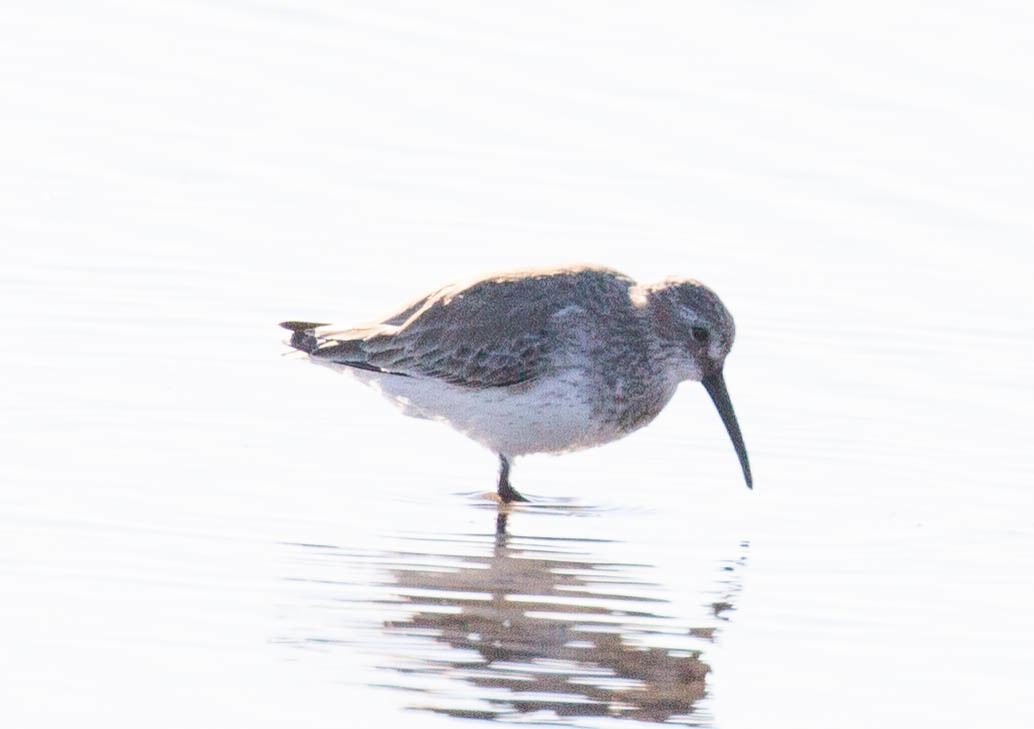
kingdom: Animalia
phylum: Chordata
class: Aves
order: Charadriiformes
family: Scolopacidae
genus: Calidris
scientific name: Calidris alpina
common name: Dunlin
